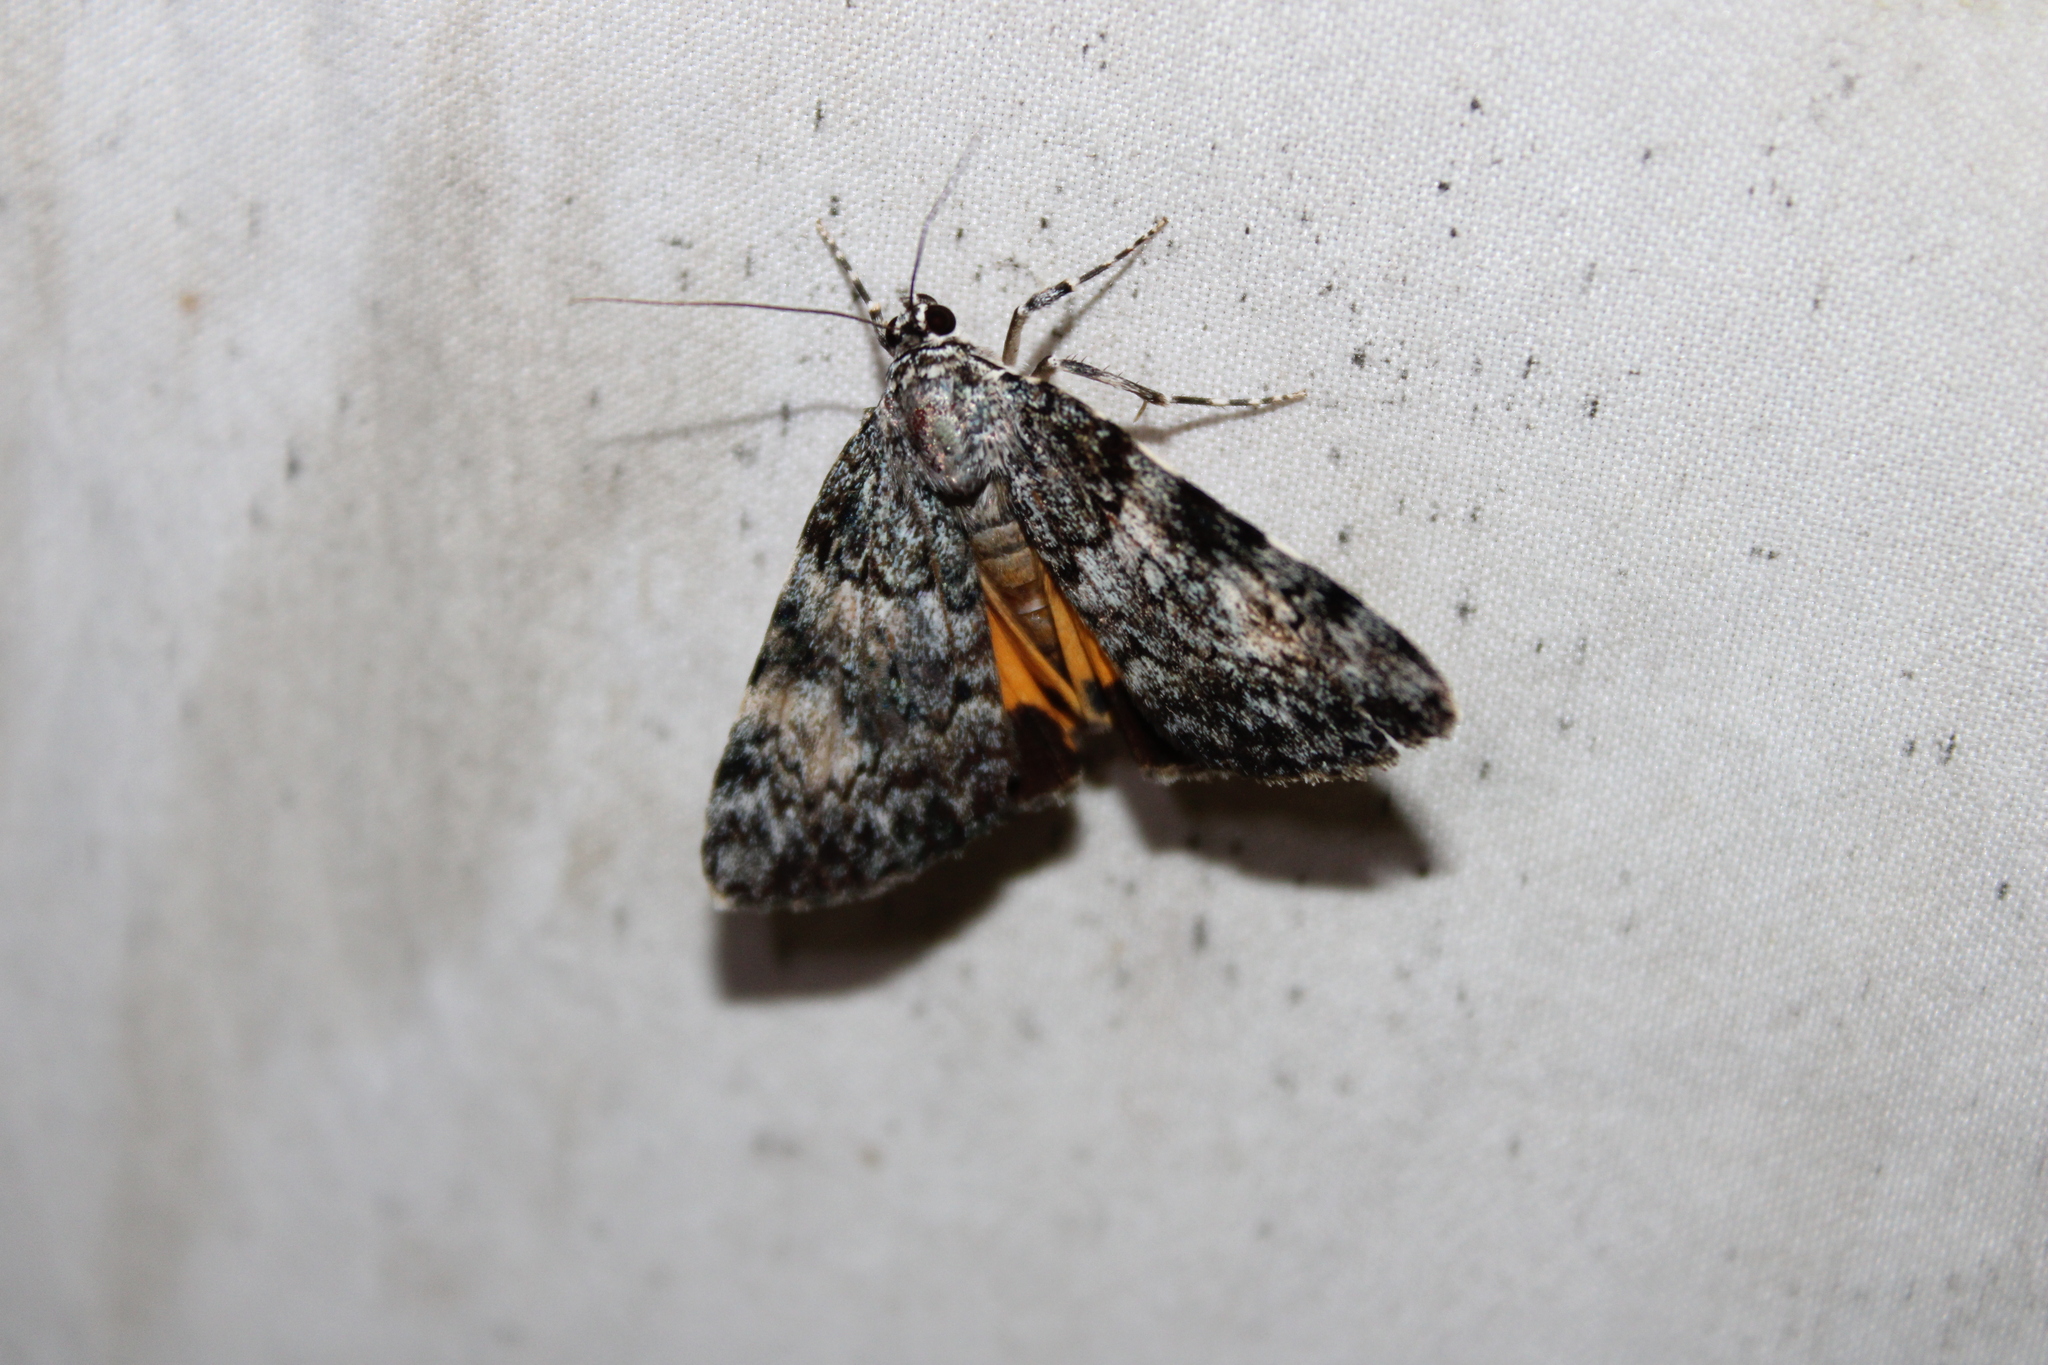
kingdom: Animalia
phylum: Arthropoda
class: Insecta
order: Lepidoptera
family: Erebidae
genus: Catocala
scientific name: Catocala lineella
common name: Little lined underwing
